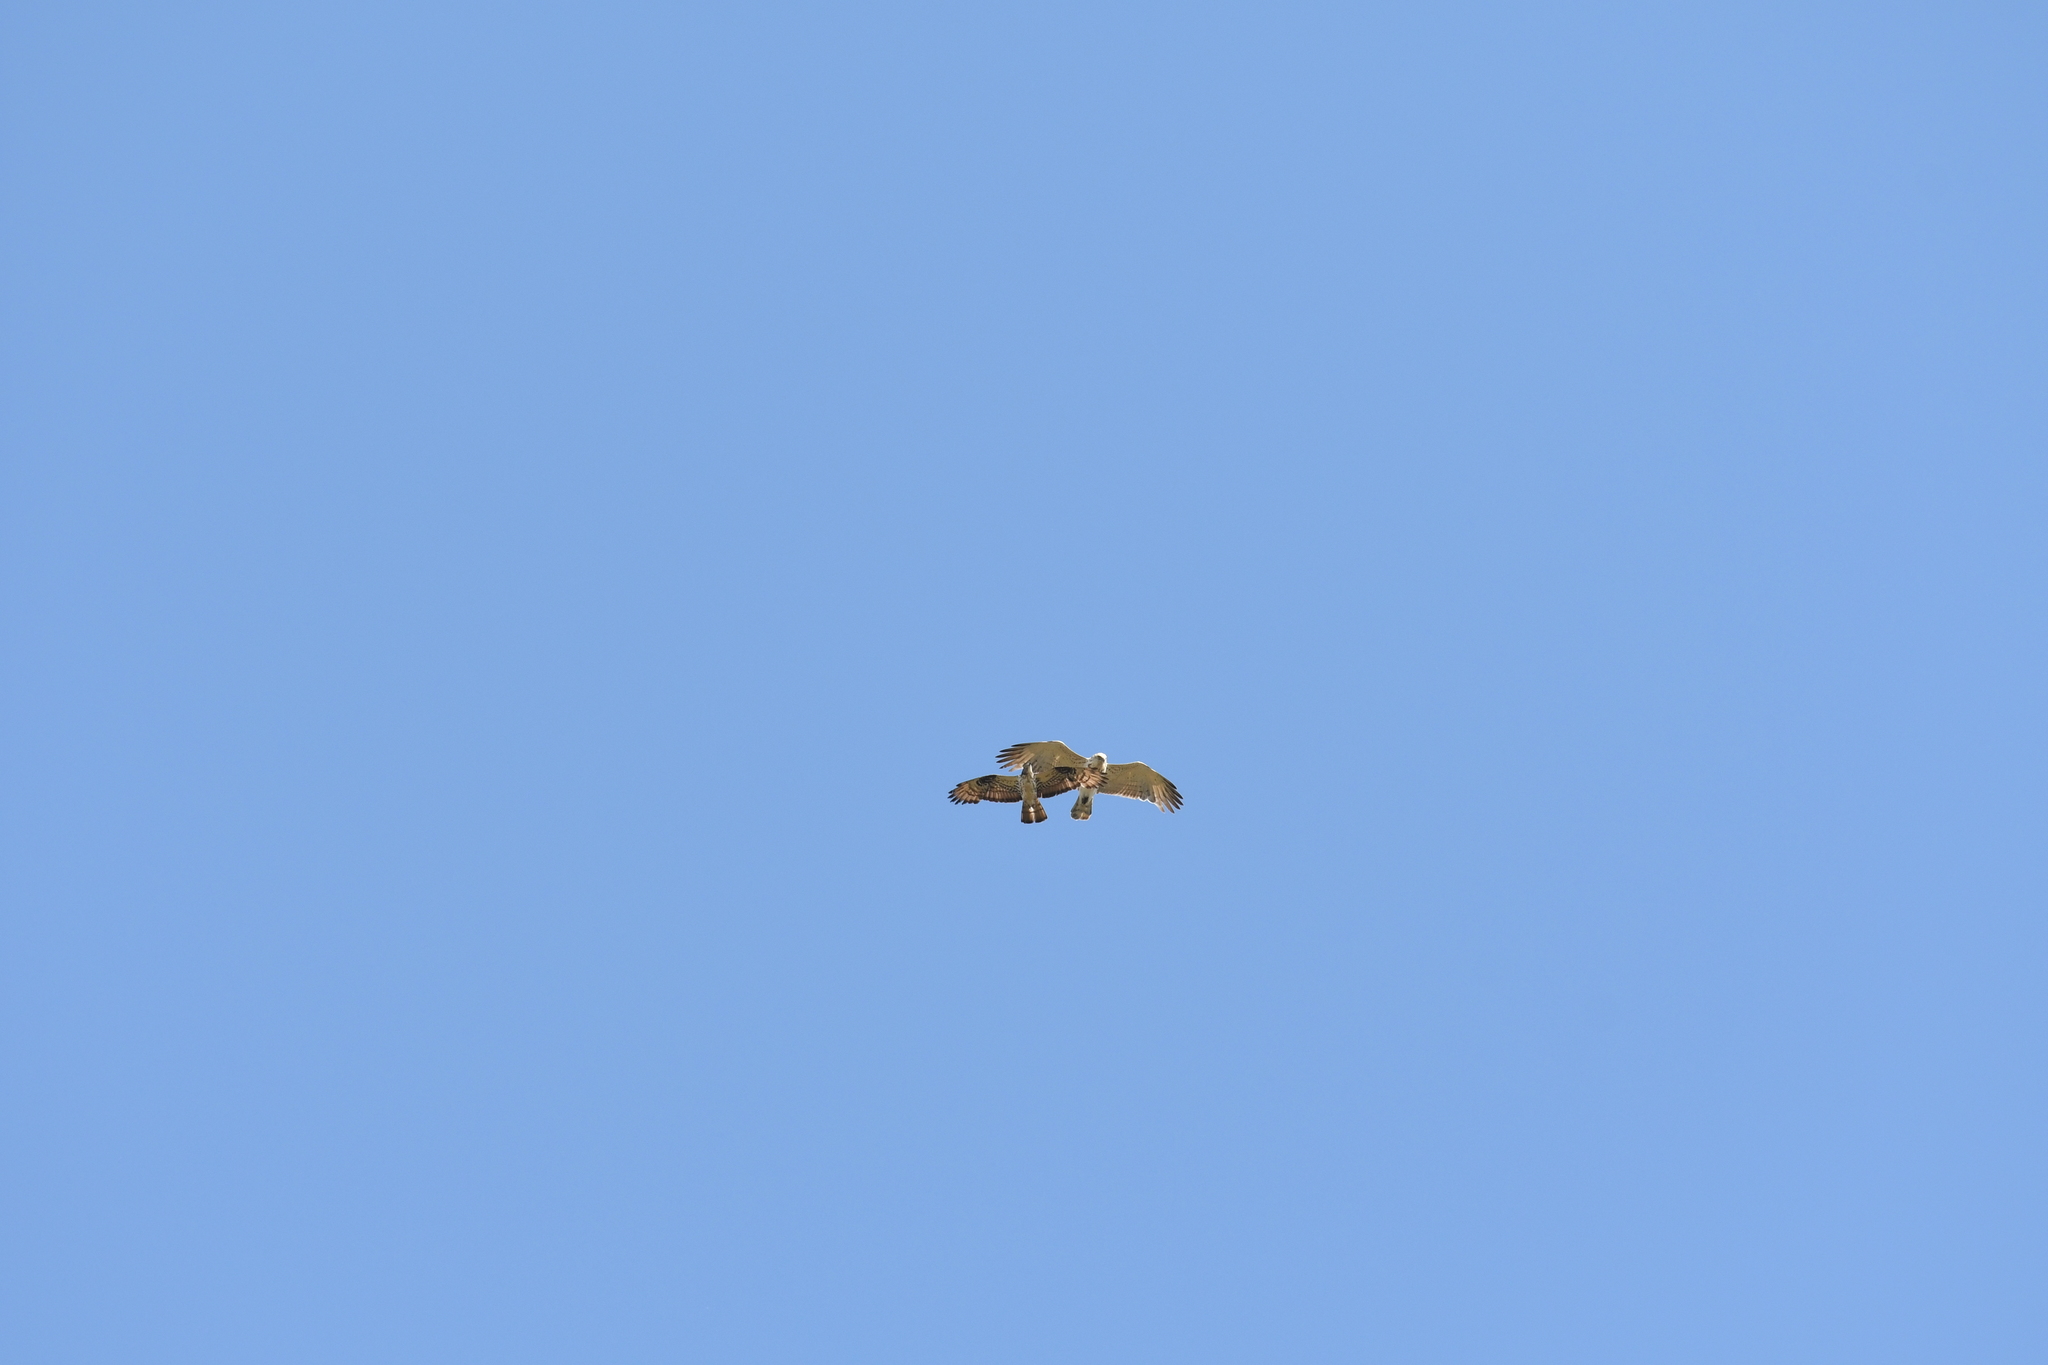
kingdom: Animalia
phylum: Chordata
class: Aves
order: Accipitriformes
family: Accipitridae
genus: Circaetus
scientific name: Circaetus gallicus
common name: Short-toed snake eagle
